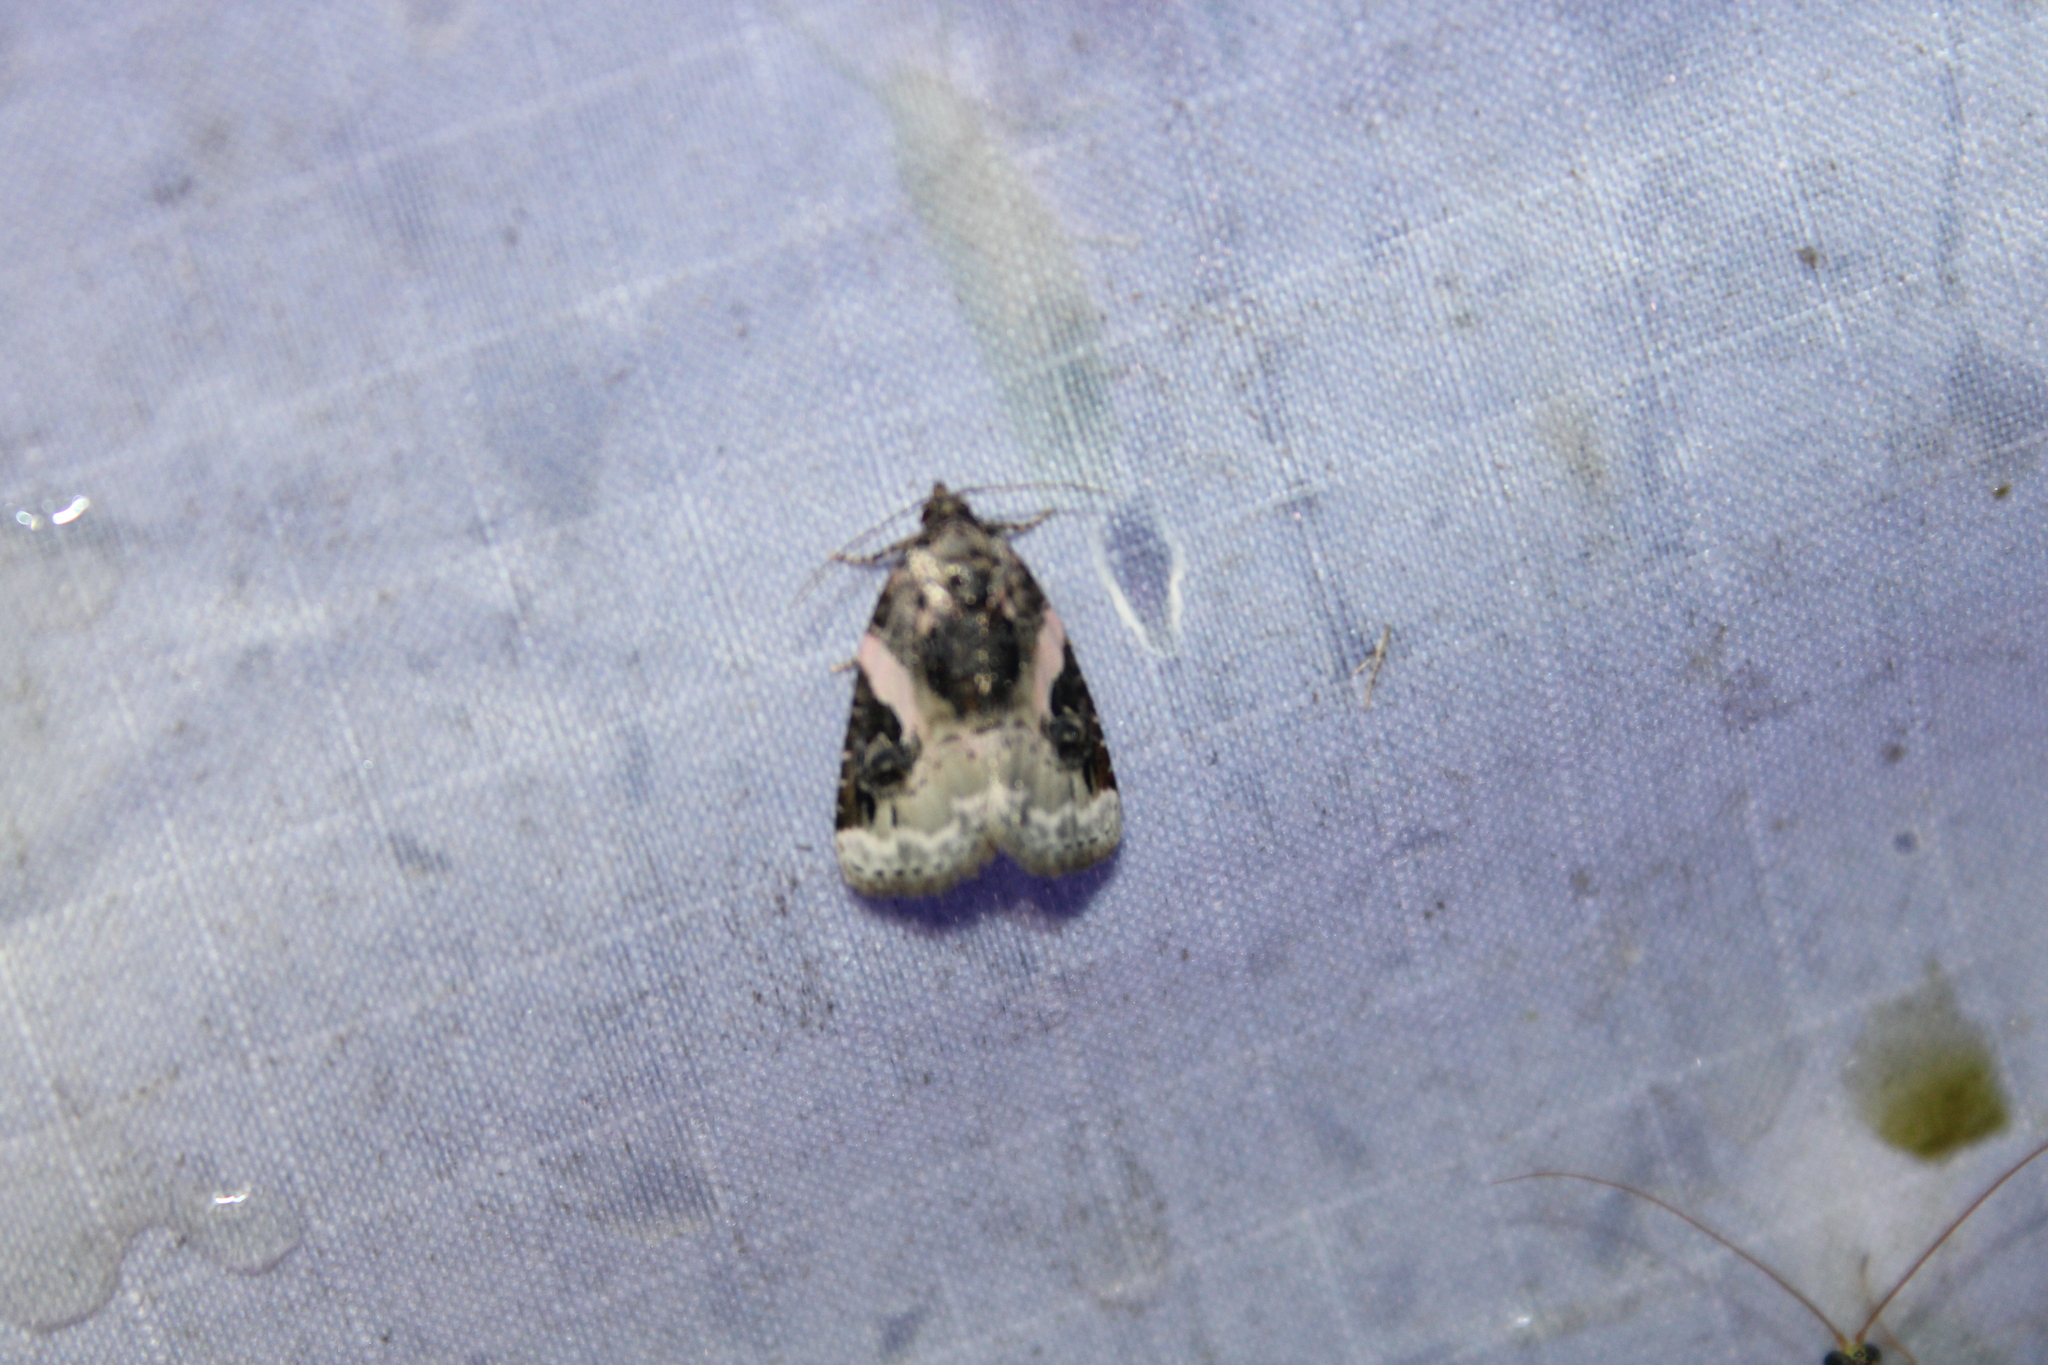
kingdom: Animalia
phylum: Arthropoda
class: Insecta
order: Lepidoptera
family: Noctuidae
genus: Pseudeustrotia
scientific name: Pseudeustrotia carneola
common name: Pink-barred lithacodia moth
